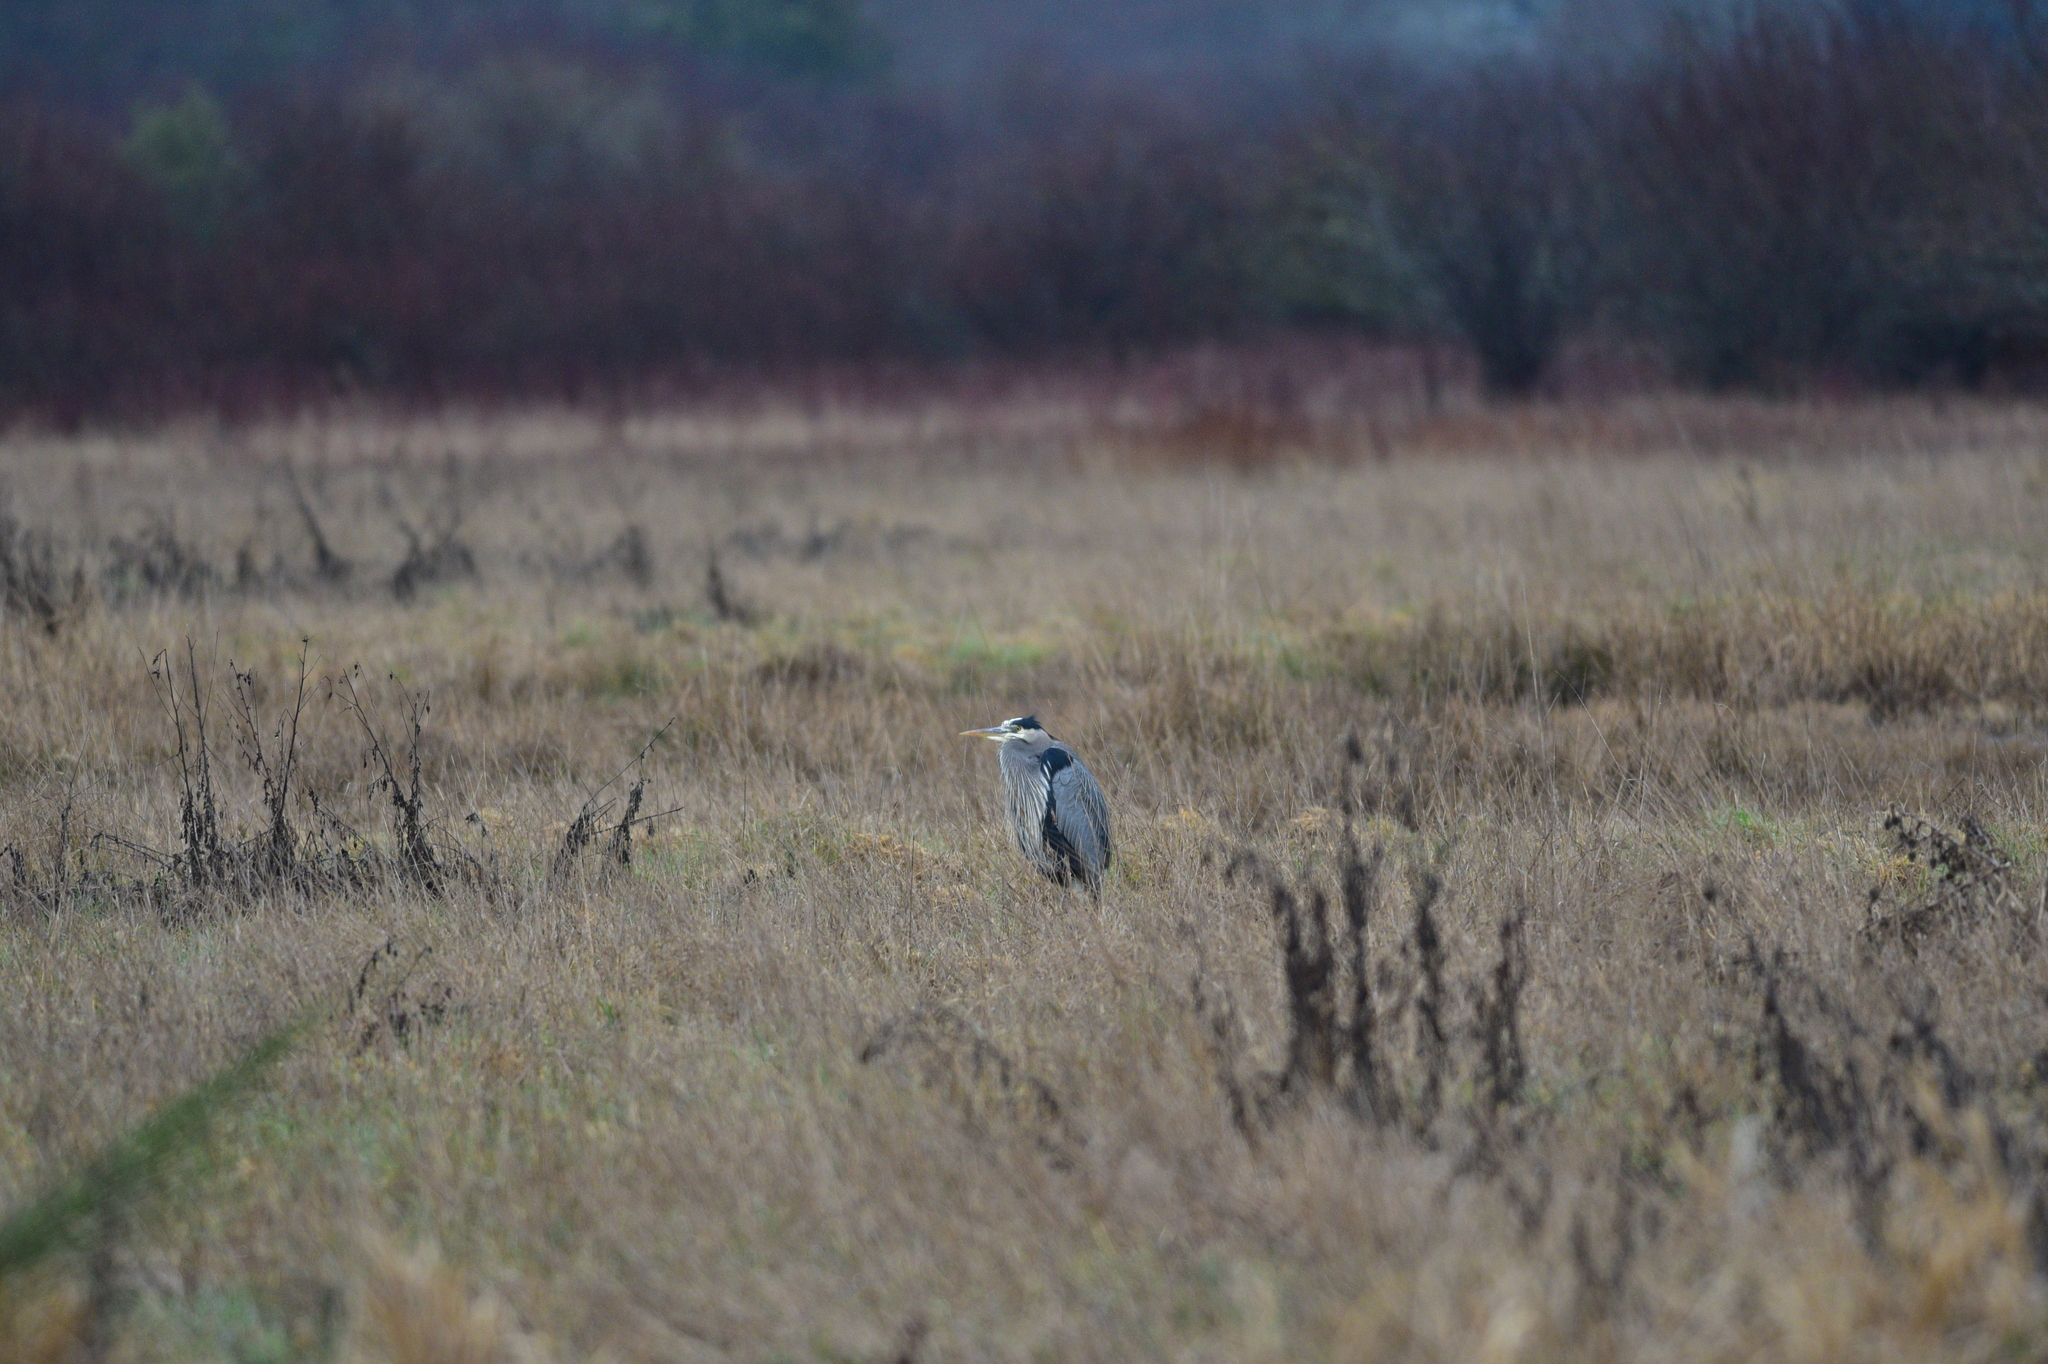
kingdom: Animalia
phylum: Chordata
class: Aves
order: Pelecaniformes
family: Ardeidae
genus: Ardea
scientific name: Ardea herodias
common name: Great blue heron
